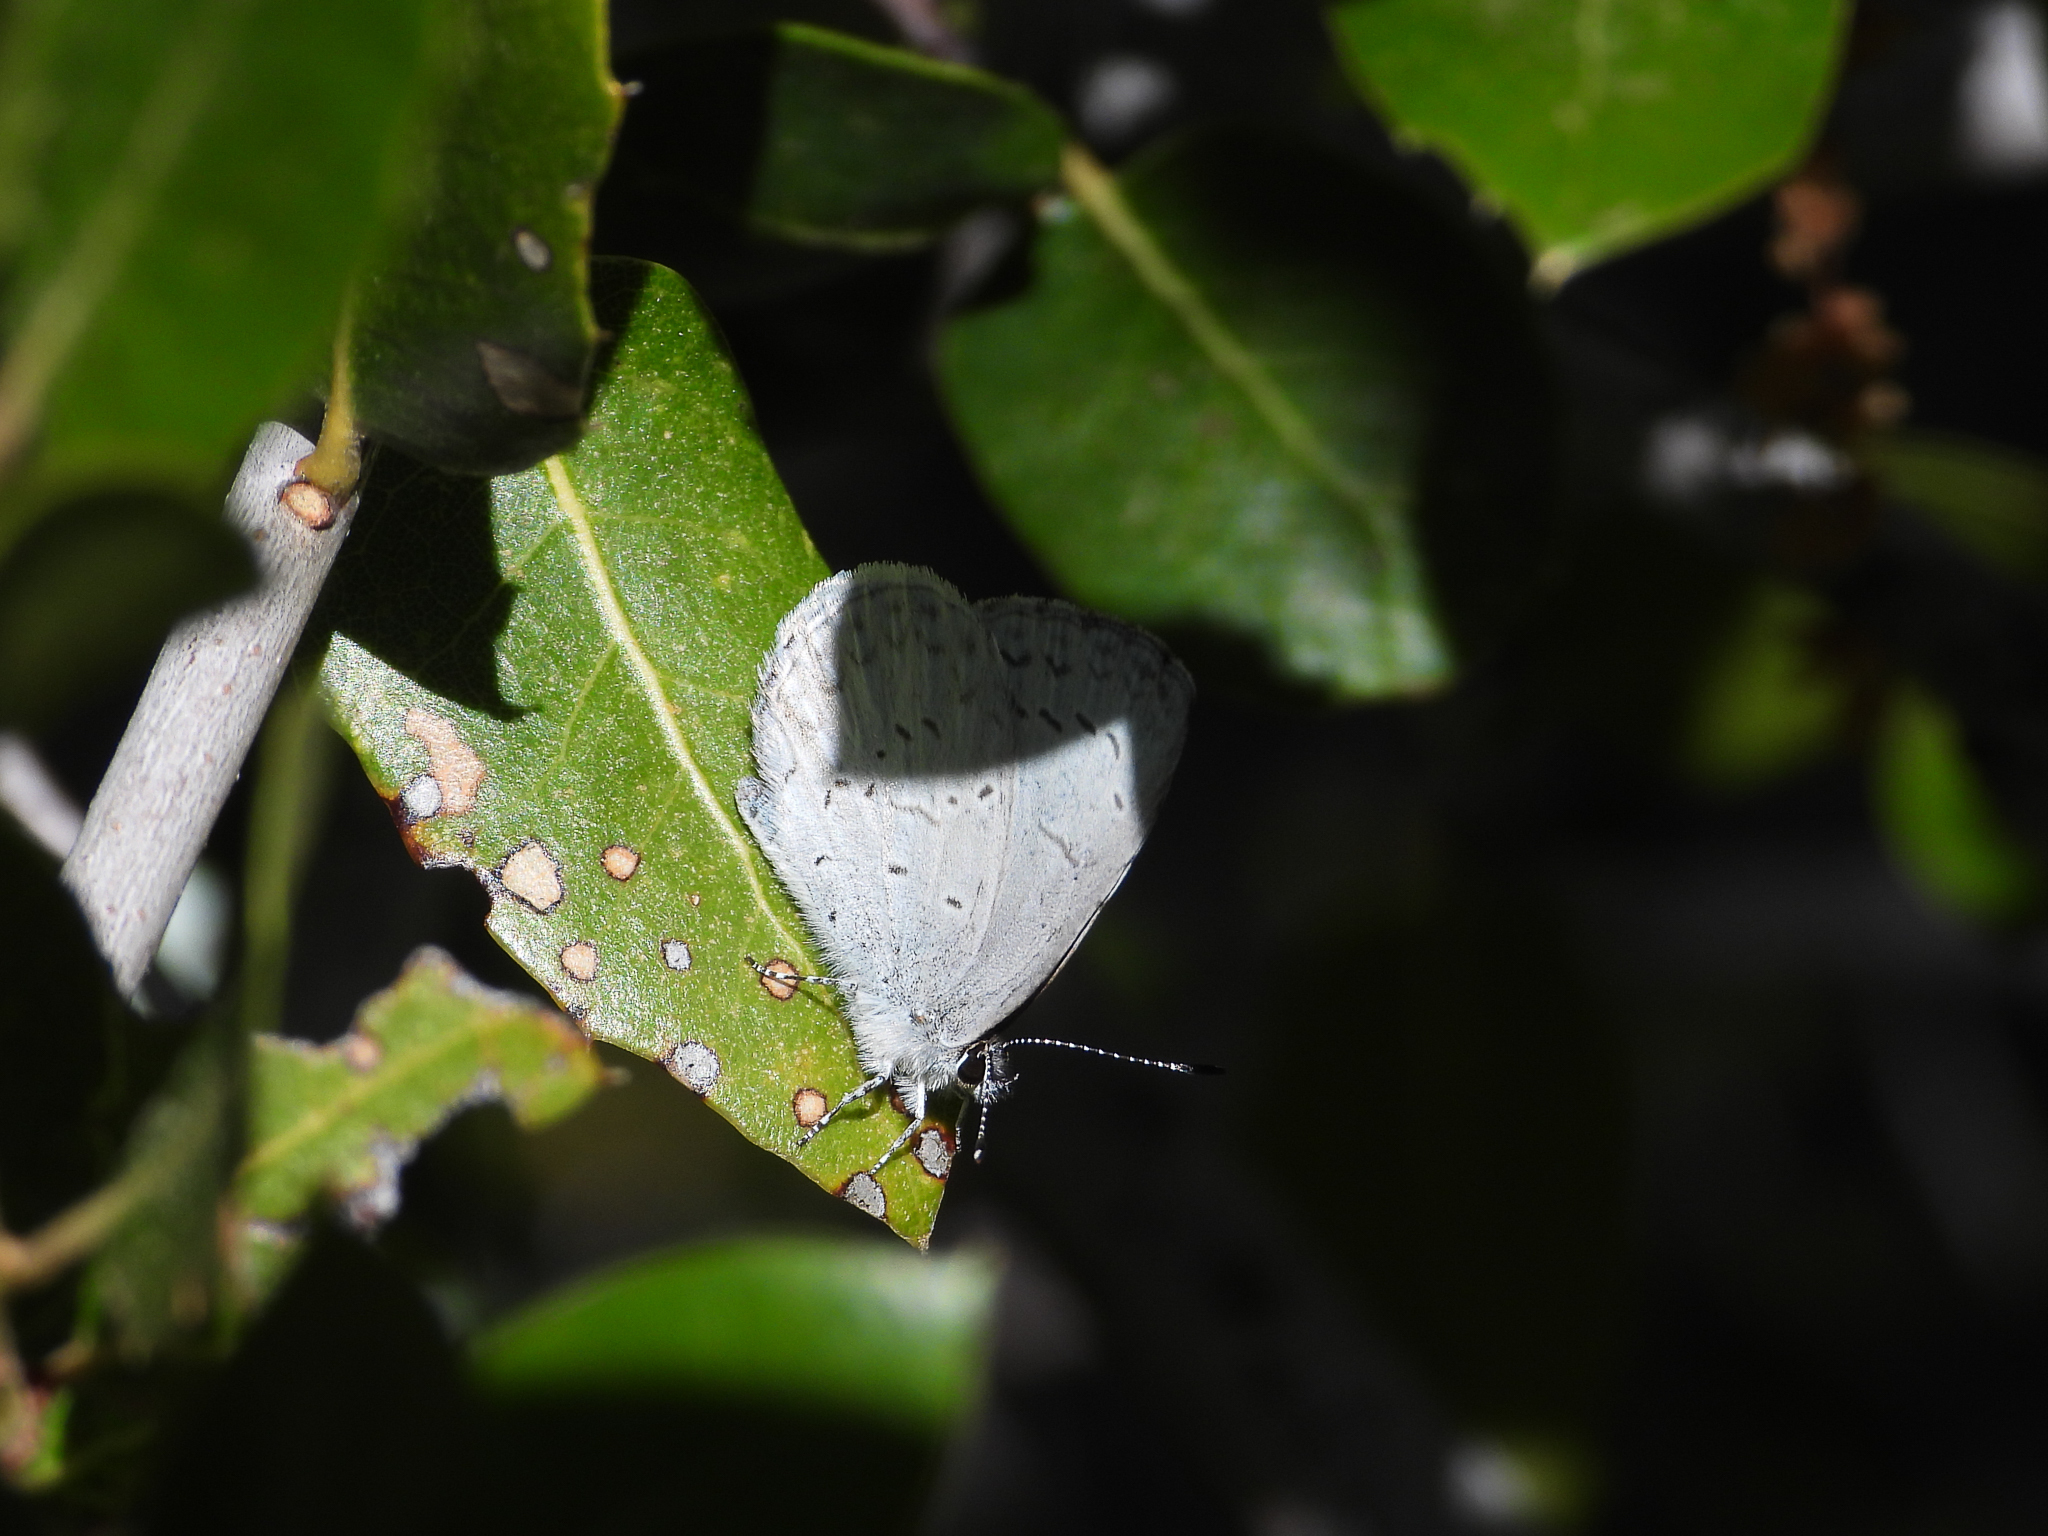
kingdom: Animalia
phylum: Arthropoda
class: Insecta
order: Lepidoptera
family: Lycaenidae
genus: Celastrina
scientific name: Celastrina ladon
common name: Spring azure
